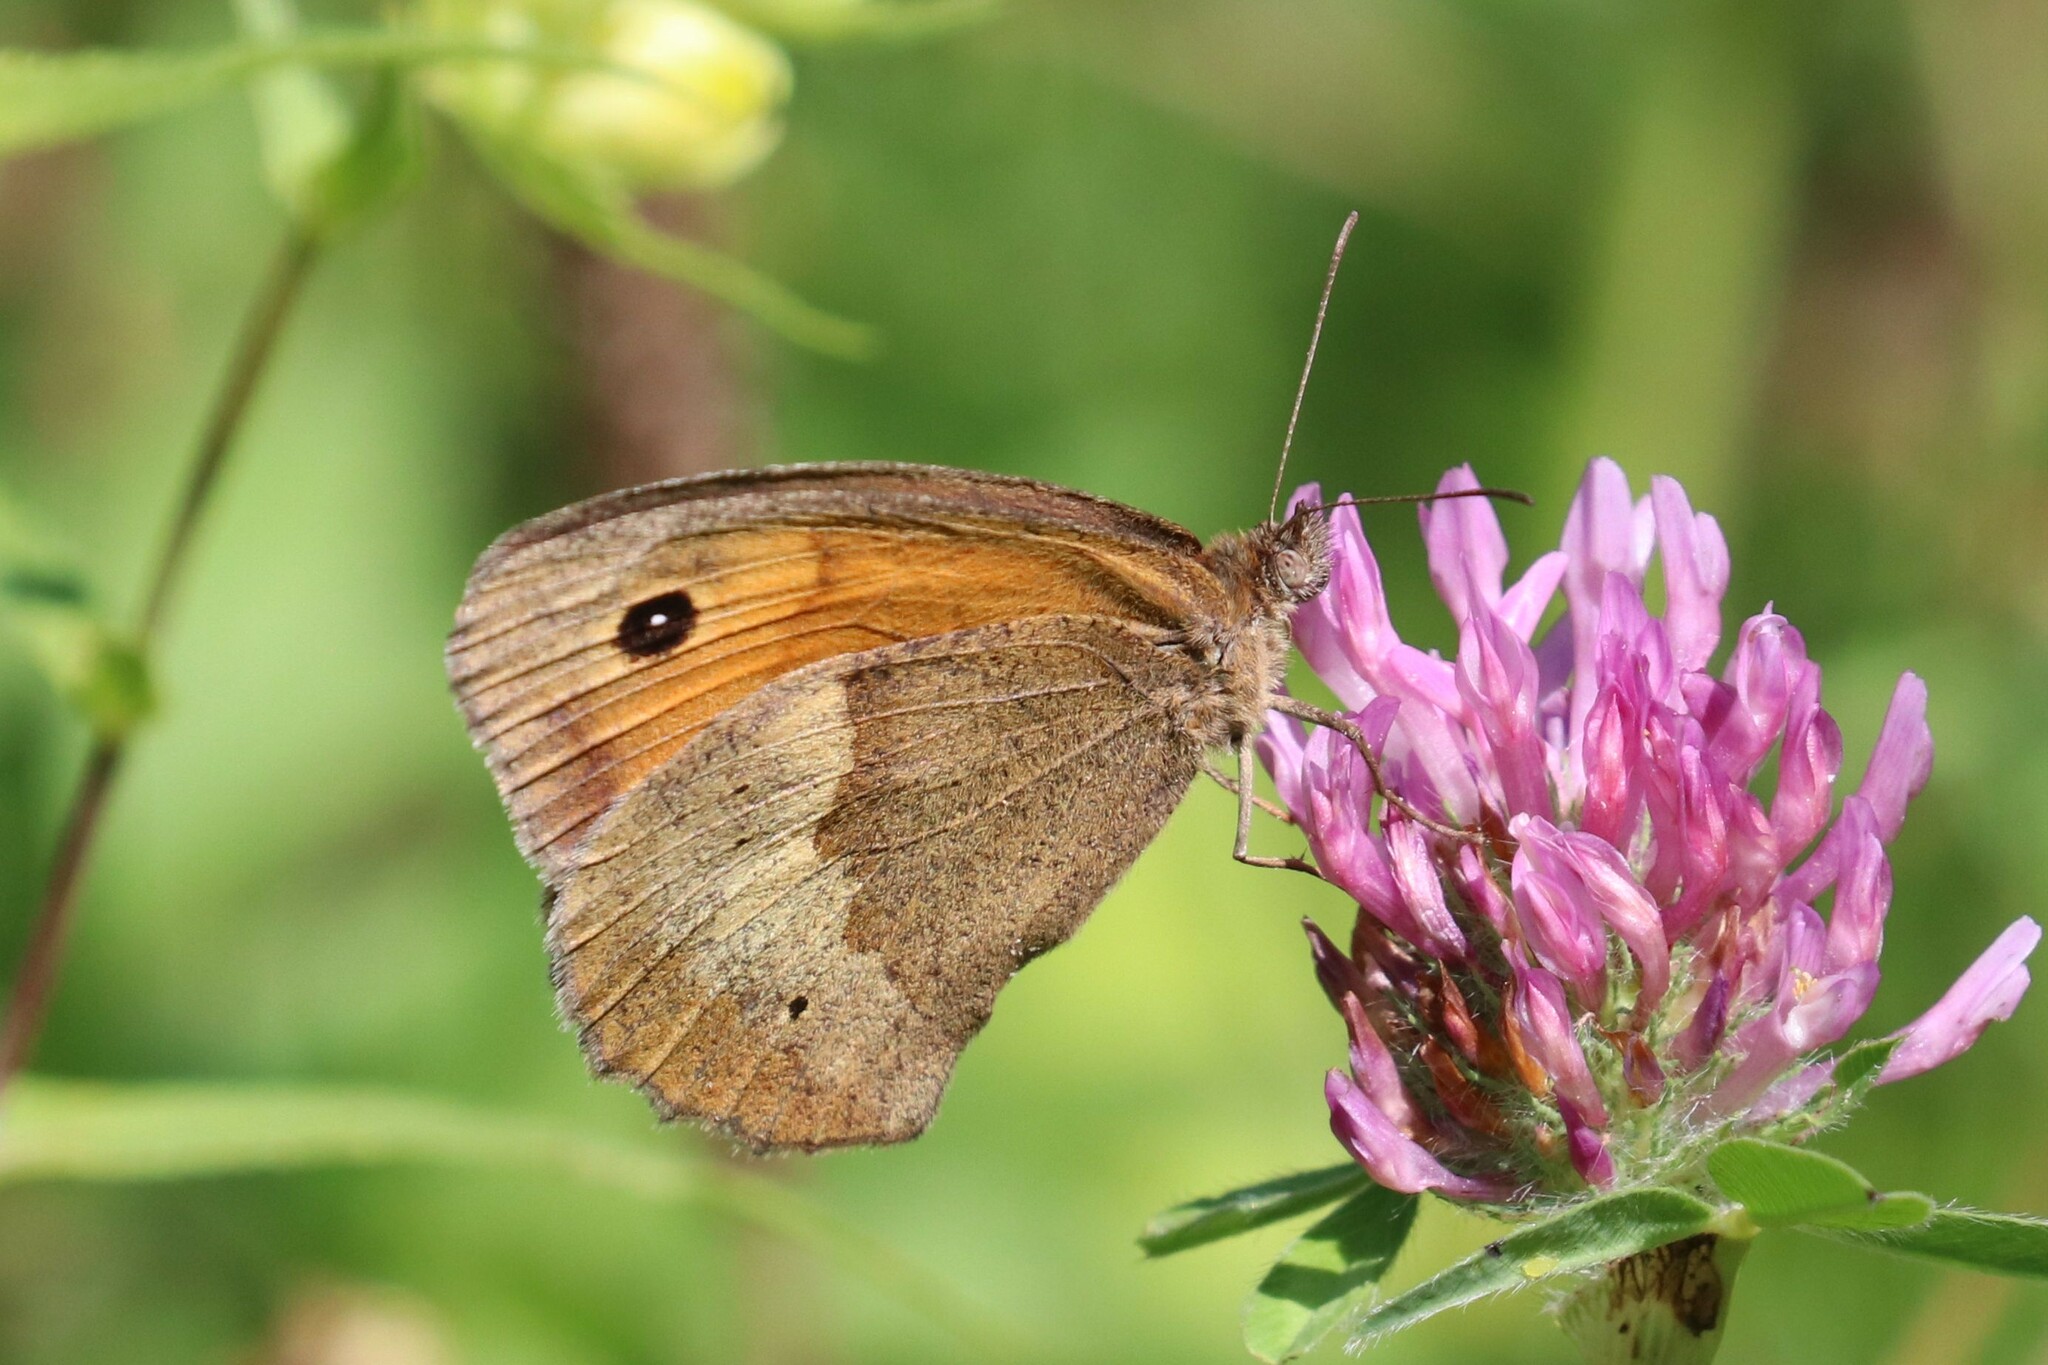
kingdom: Animalia
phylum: Arthropoda
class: Insecta
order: Lepidoptera
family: Nymphalidae
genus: Maniola
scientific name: Maniola jurtina
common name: Meadow brown
